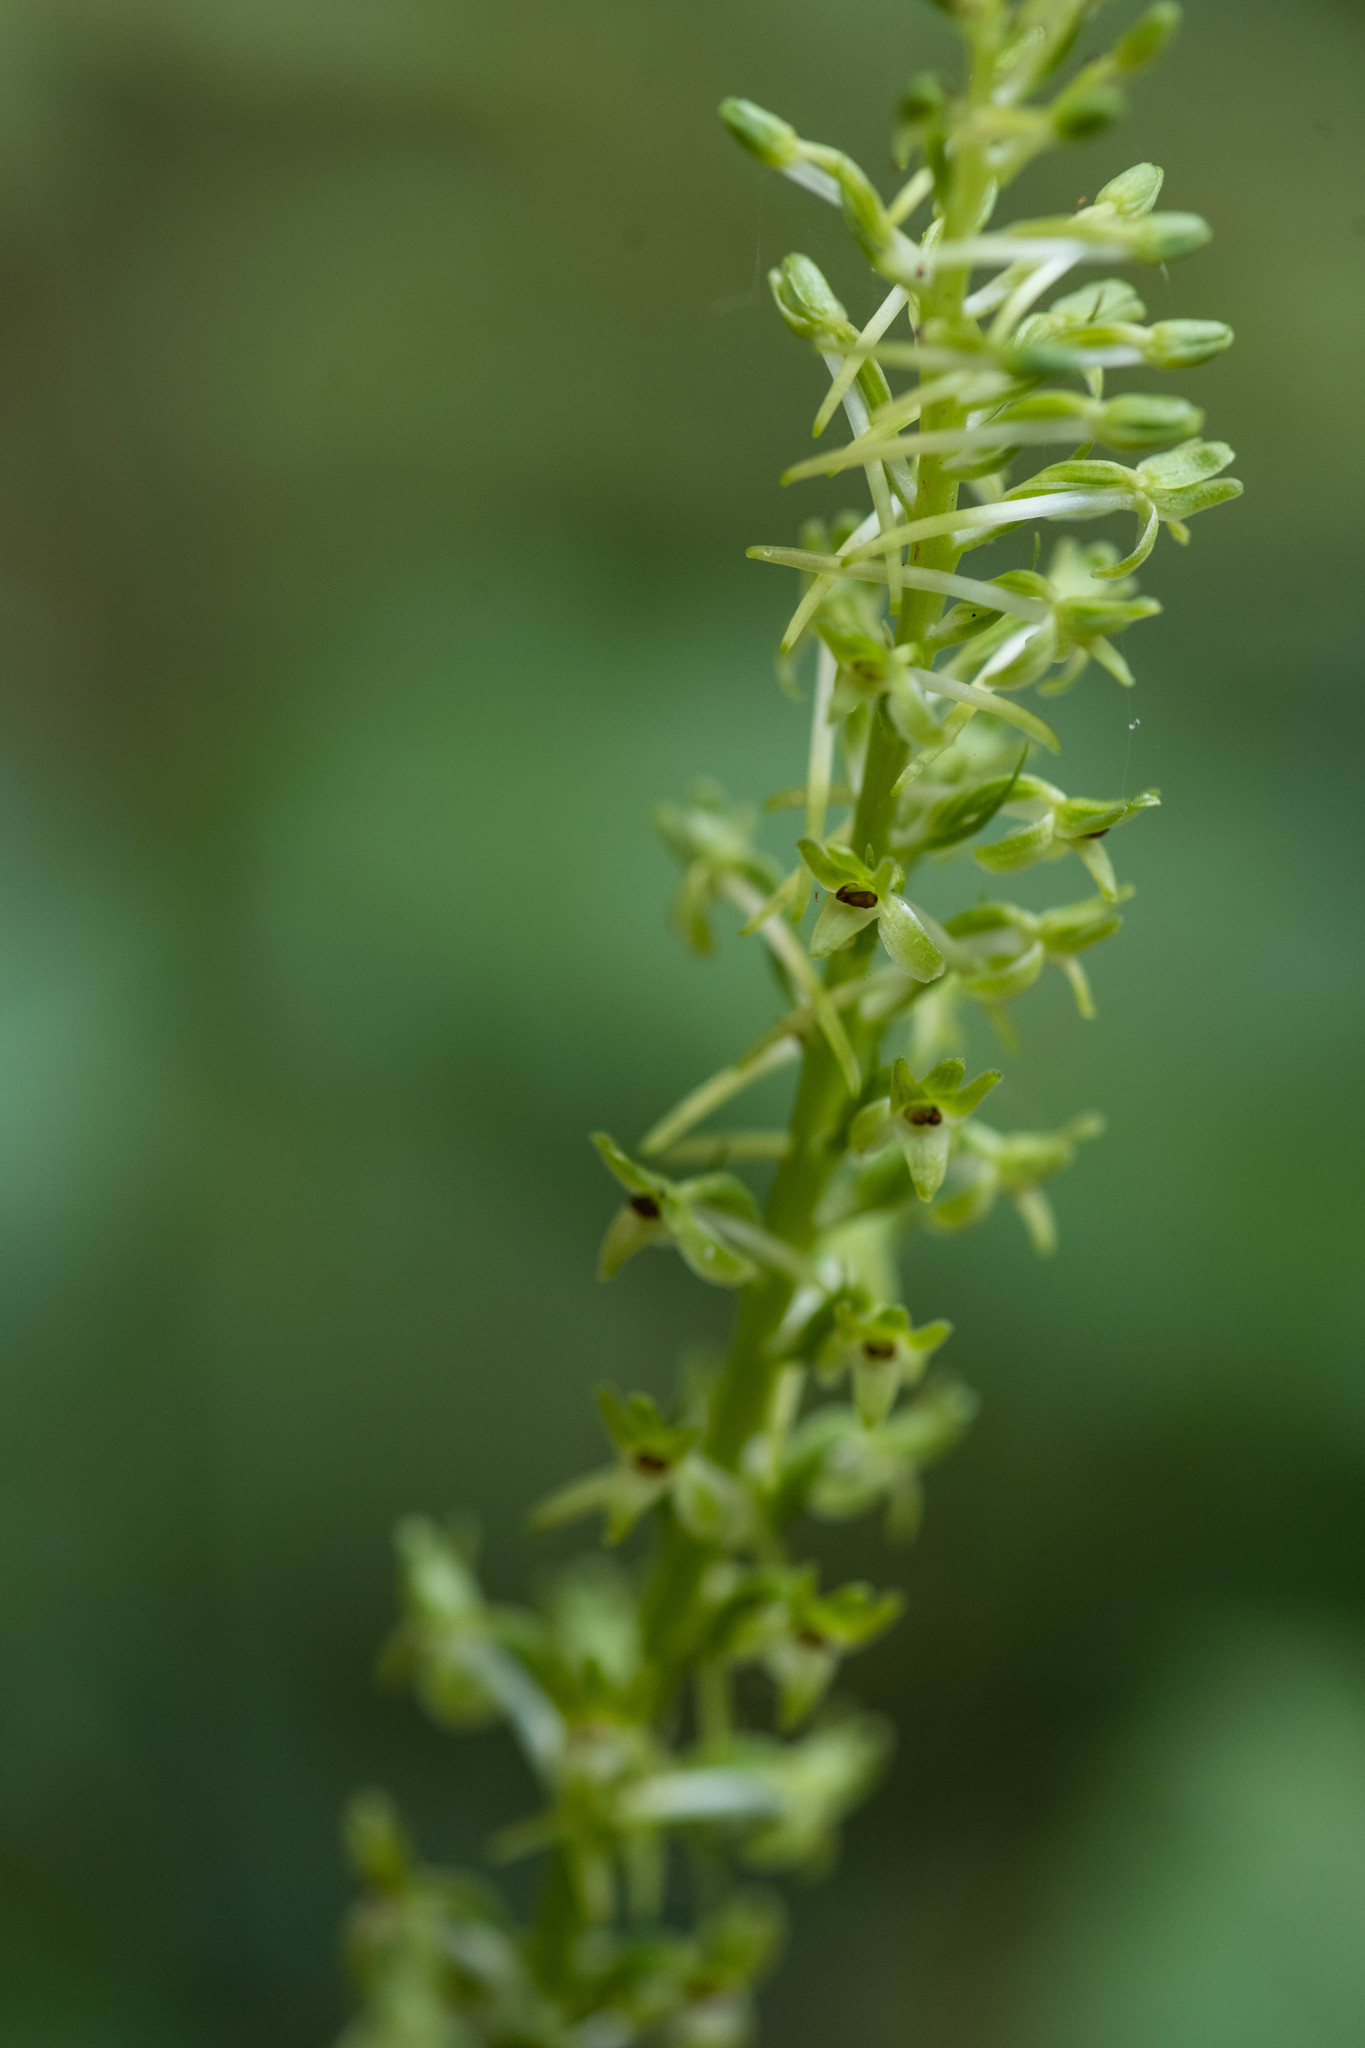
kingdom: Plantae
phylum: Tracheophyta
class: Liliopsida
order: Asparagales
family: Orchidaceae
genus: Platanthera
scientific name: Platanthera elongata
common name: Dense-flowered rein orchid
